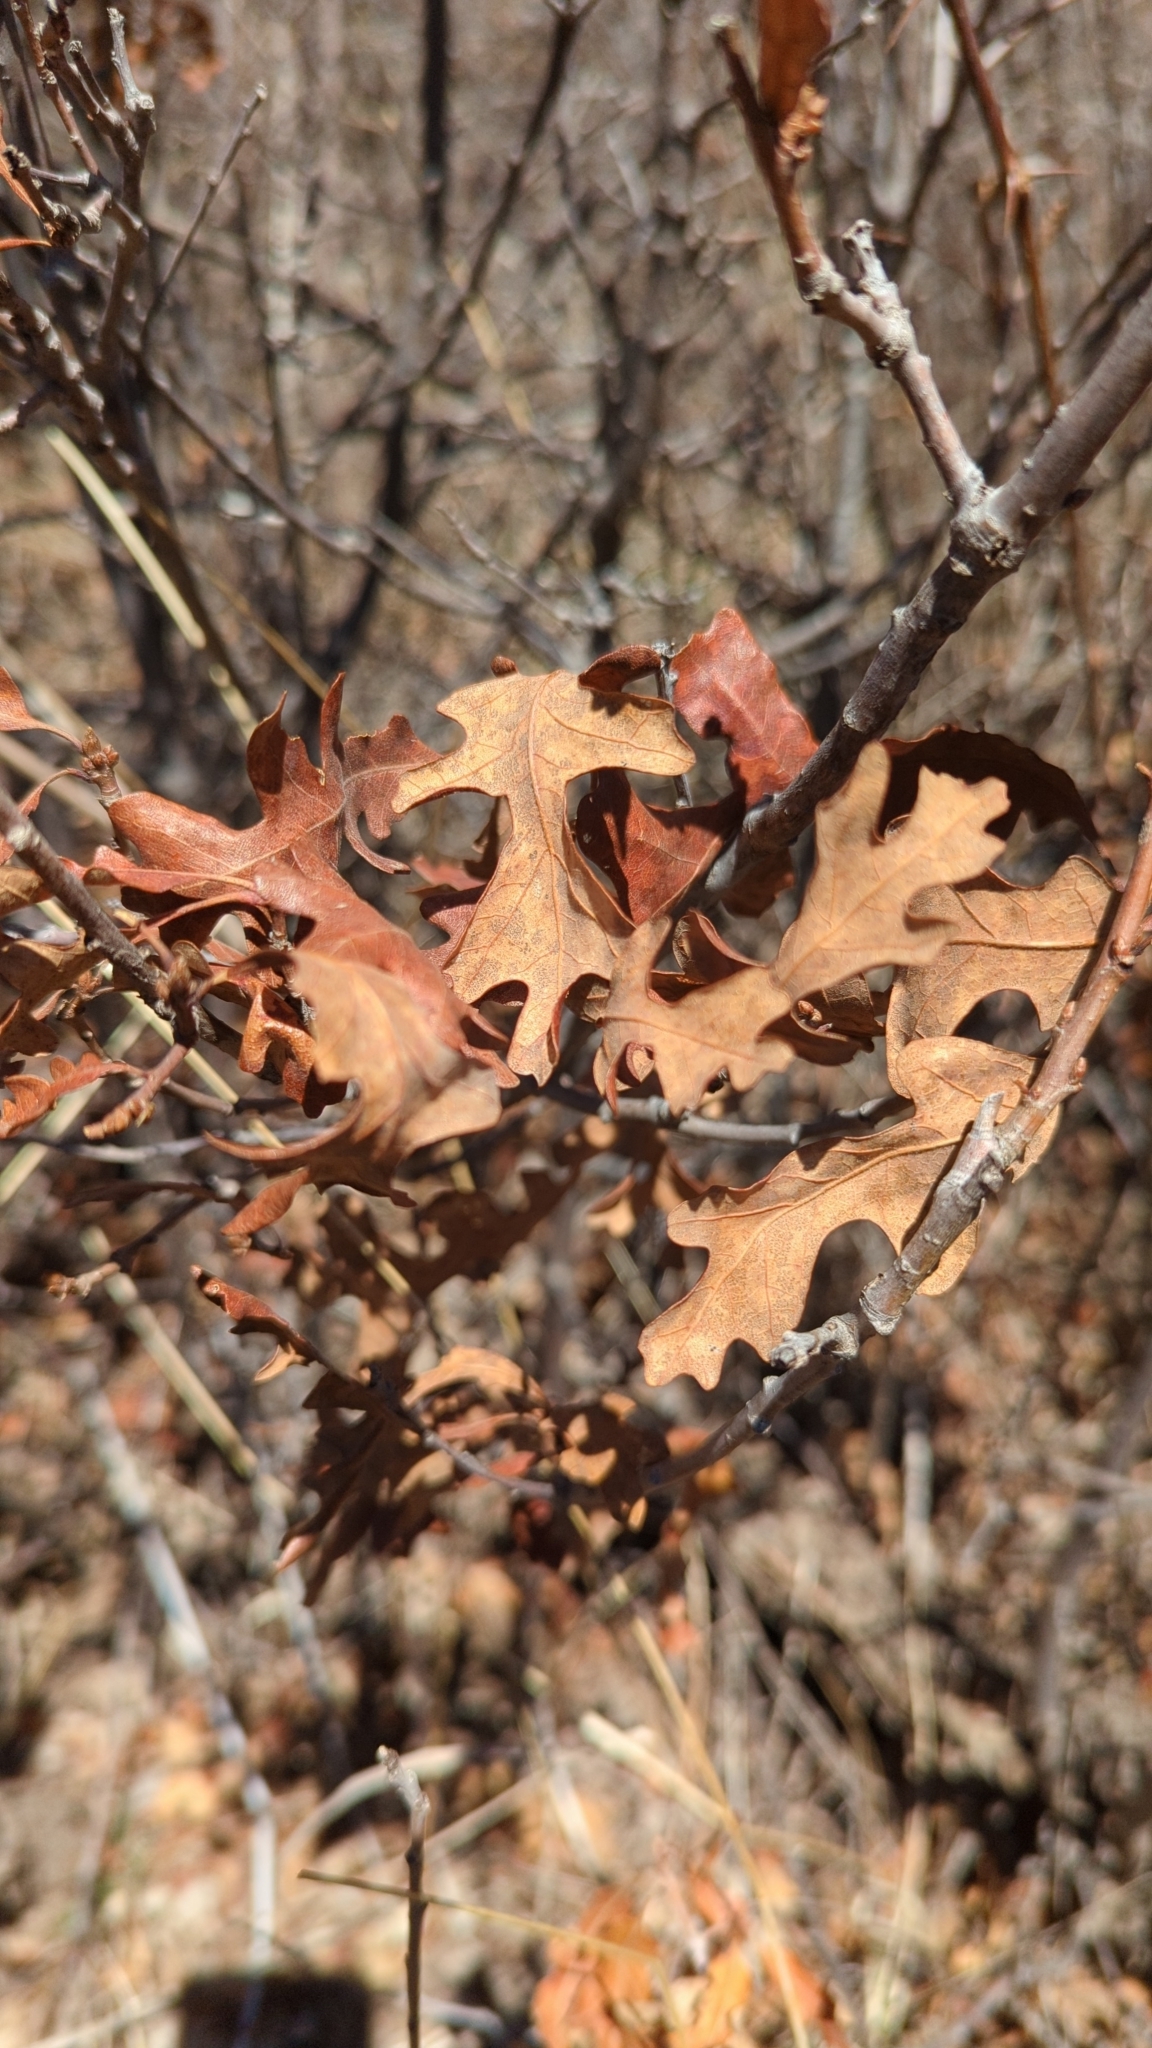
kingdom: Plantae
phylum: Tracheophyta
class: Magnoliopsida
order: Fagales
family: Fagaceae
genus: Quercus
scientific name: Quercus gambelii
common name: Gambel oak
